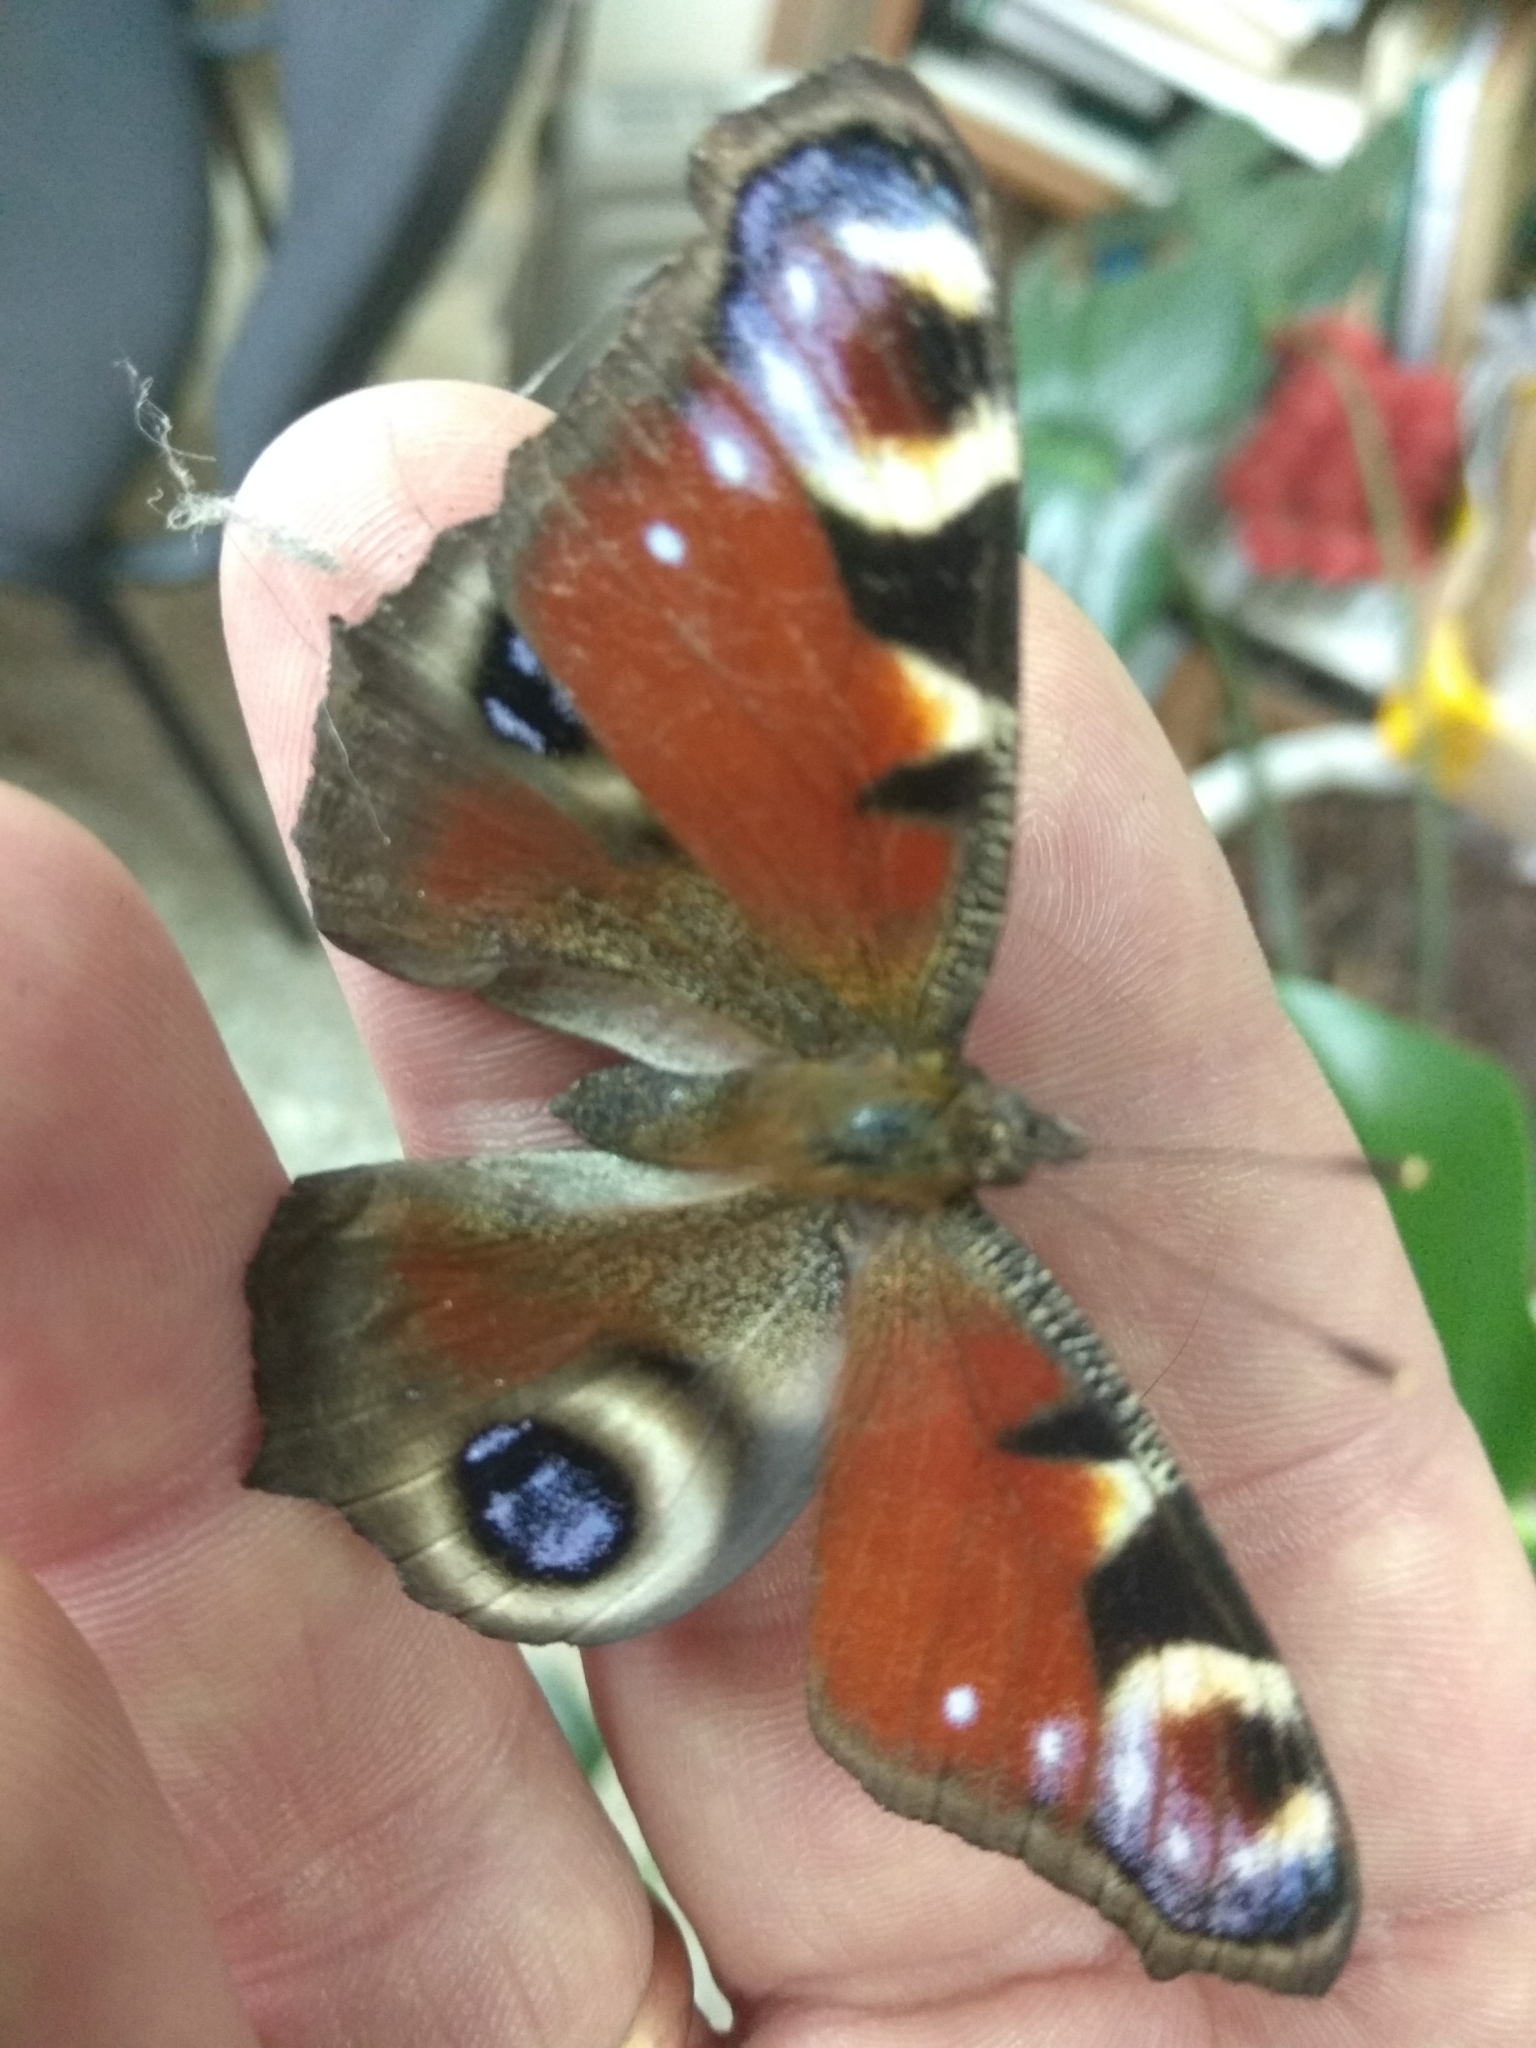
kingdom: Animalia
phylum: Arthropoda
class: Insecta
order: Lepidoptera
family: Nymphalidae
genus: Aglais
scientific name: Aglais io
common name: Peacock
